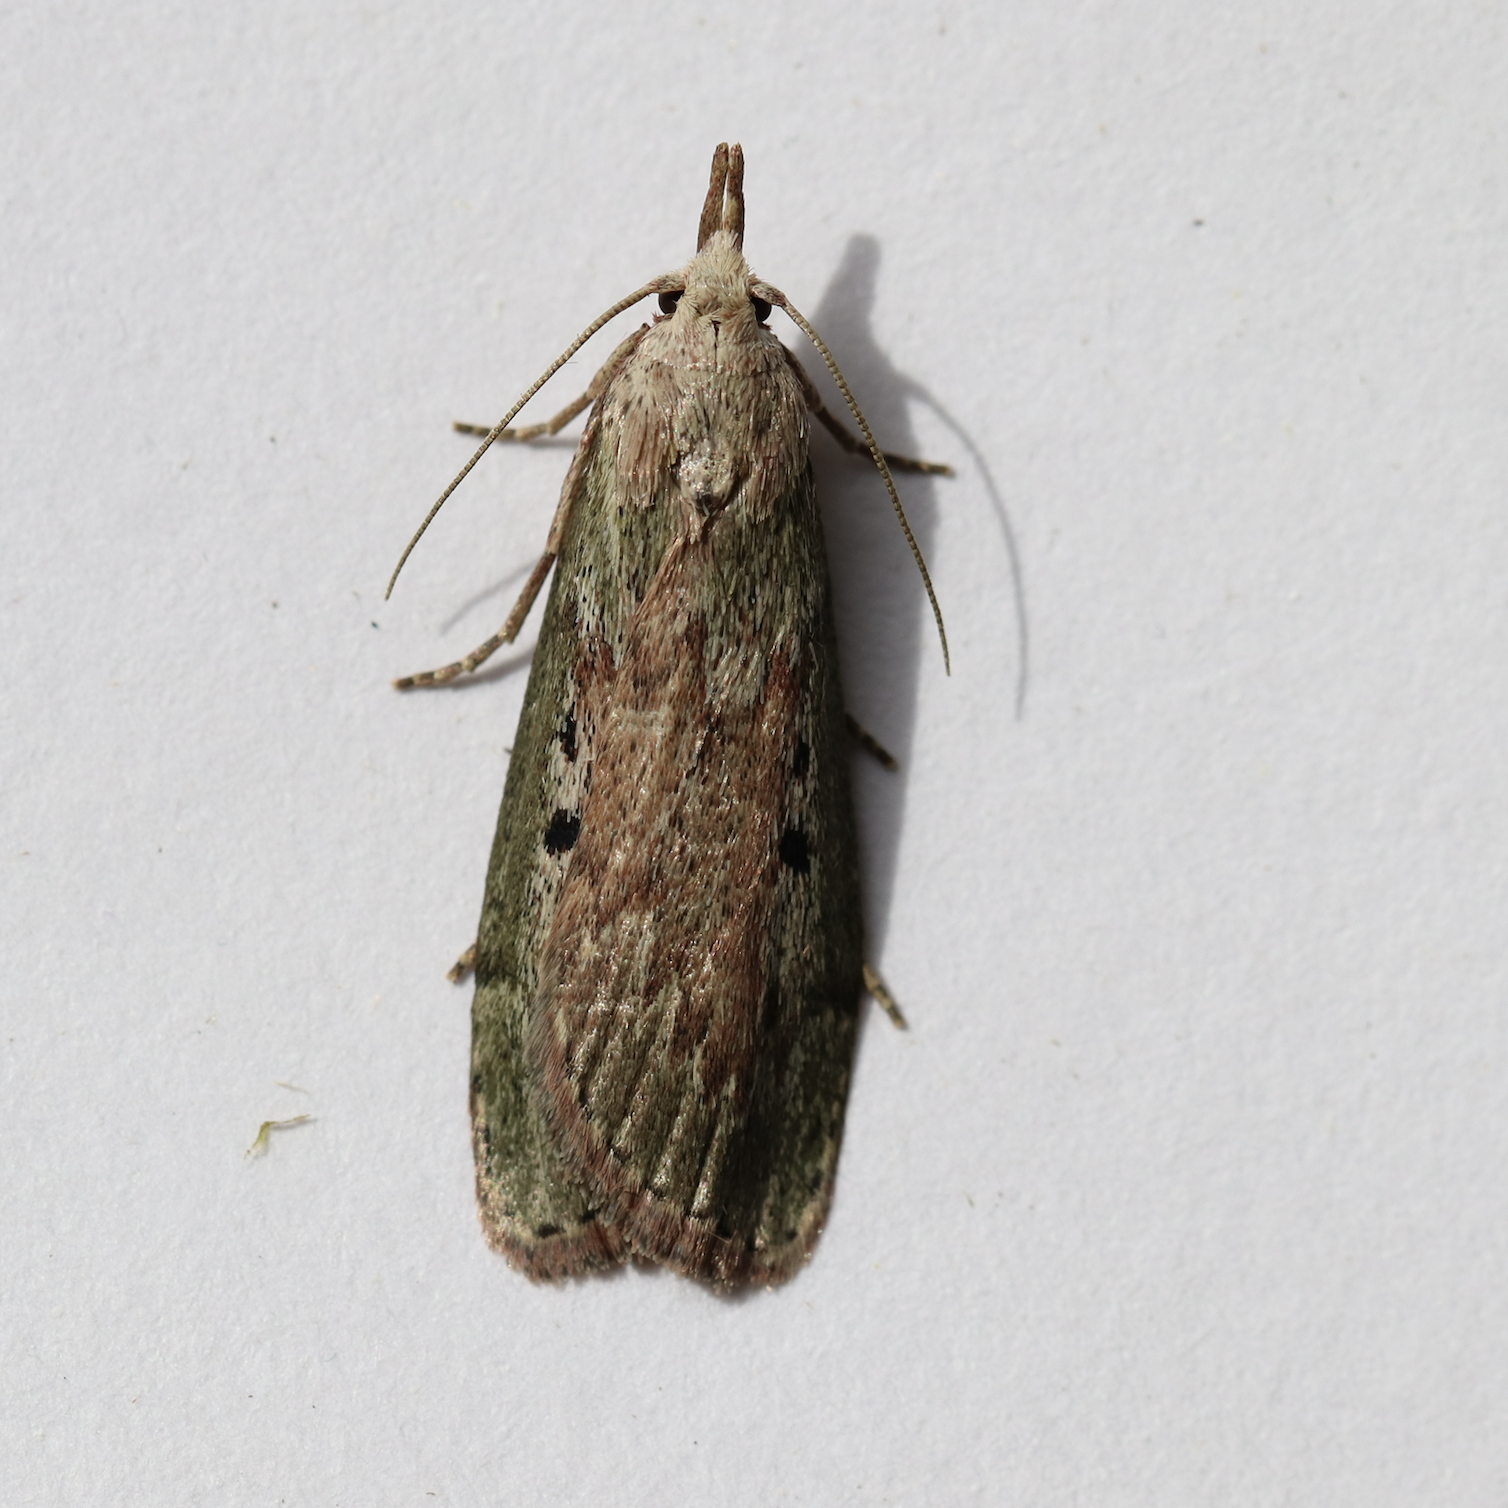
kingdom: Animalia
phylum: Arthropoda
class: Insecta
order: Lepidoptera
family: Pyralidae
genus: Aphomia
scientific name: Aphomia sociella
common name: Bee moth
